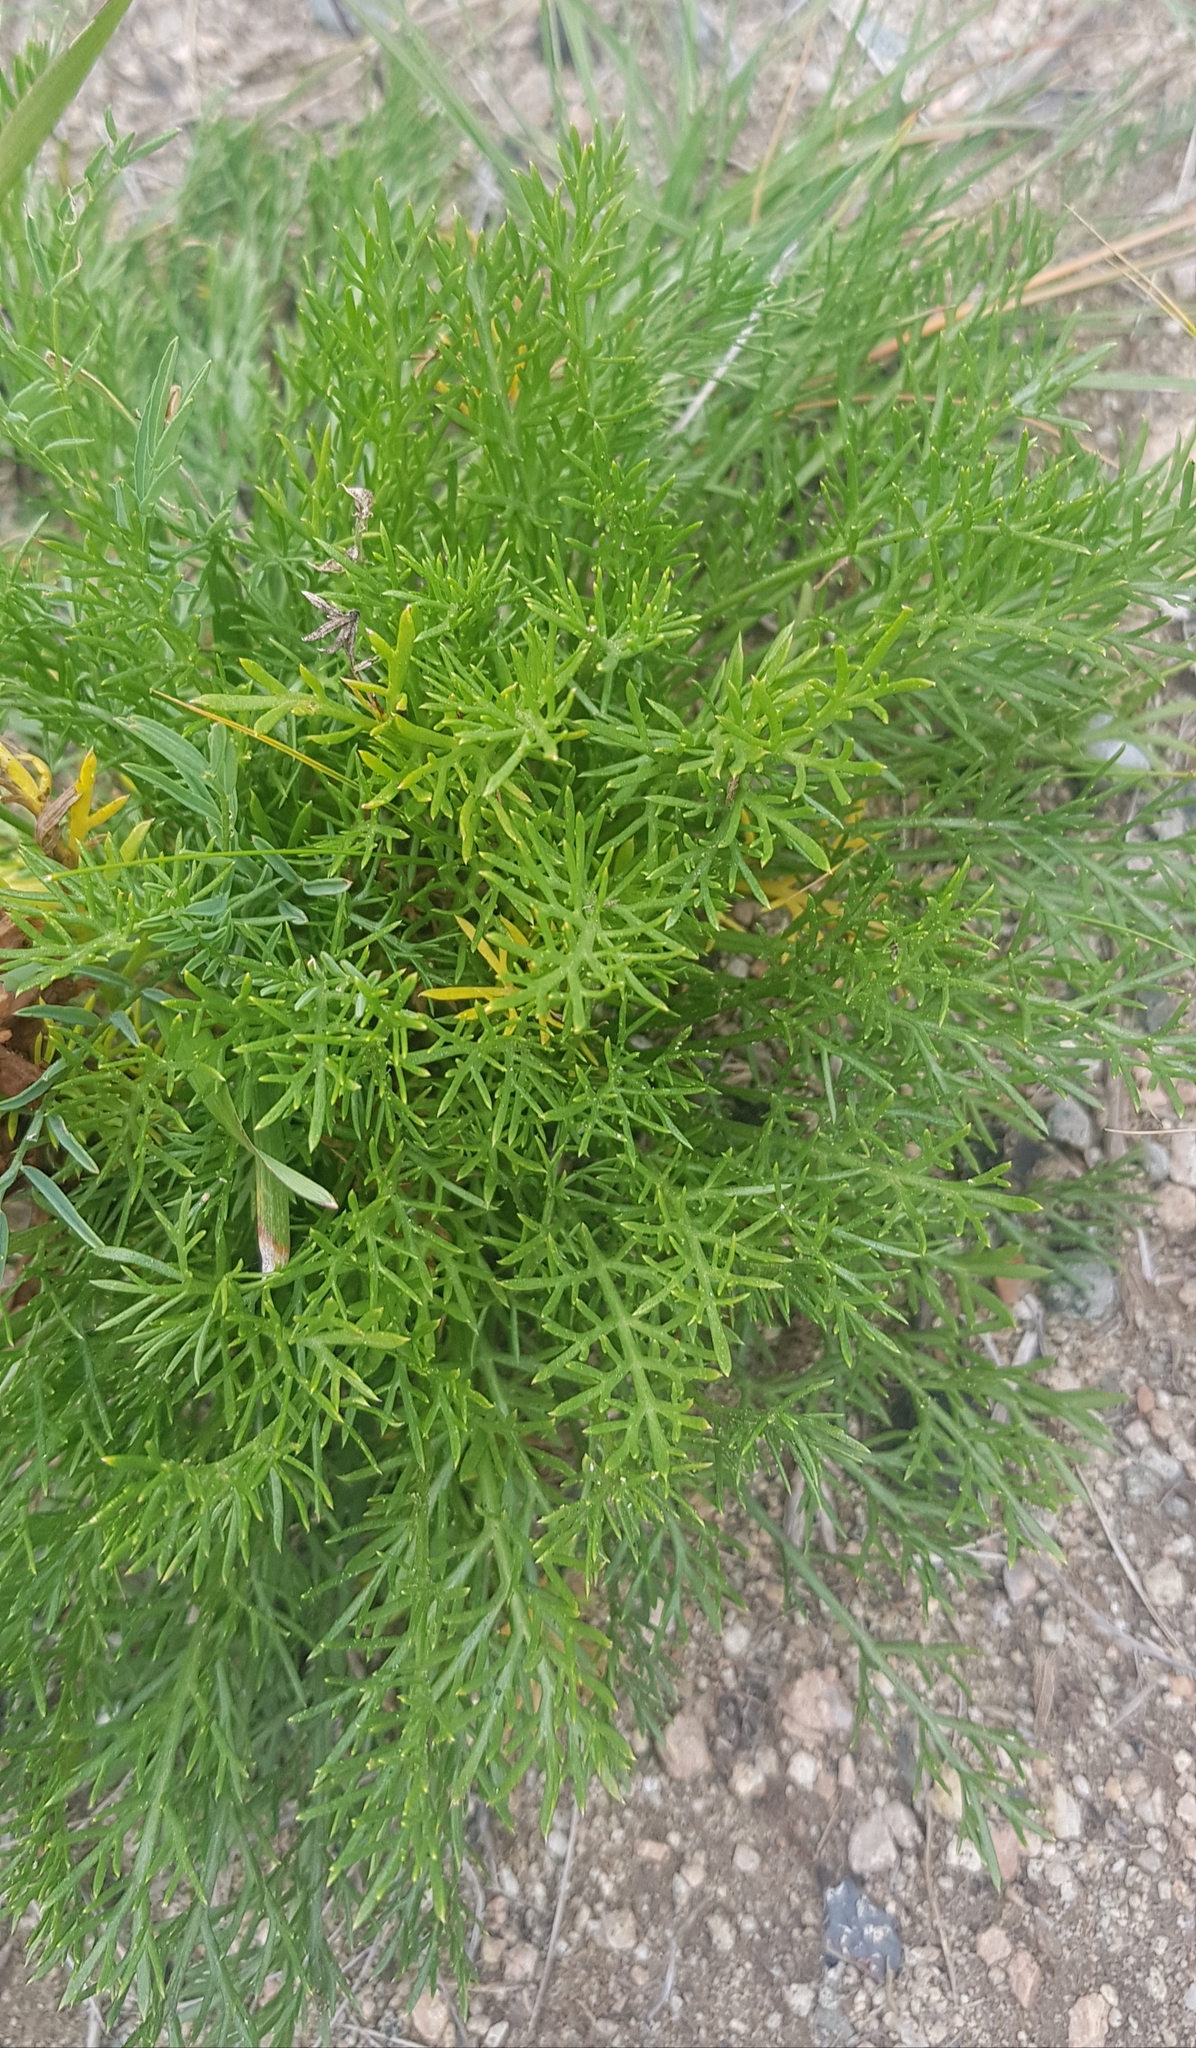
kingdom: Plantae
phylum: Tracheophyta
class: Magnoliopsida
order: Asterales
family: Asteraceae
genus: Artemisia
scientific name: Artemisia pubescens
